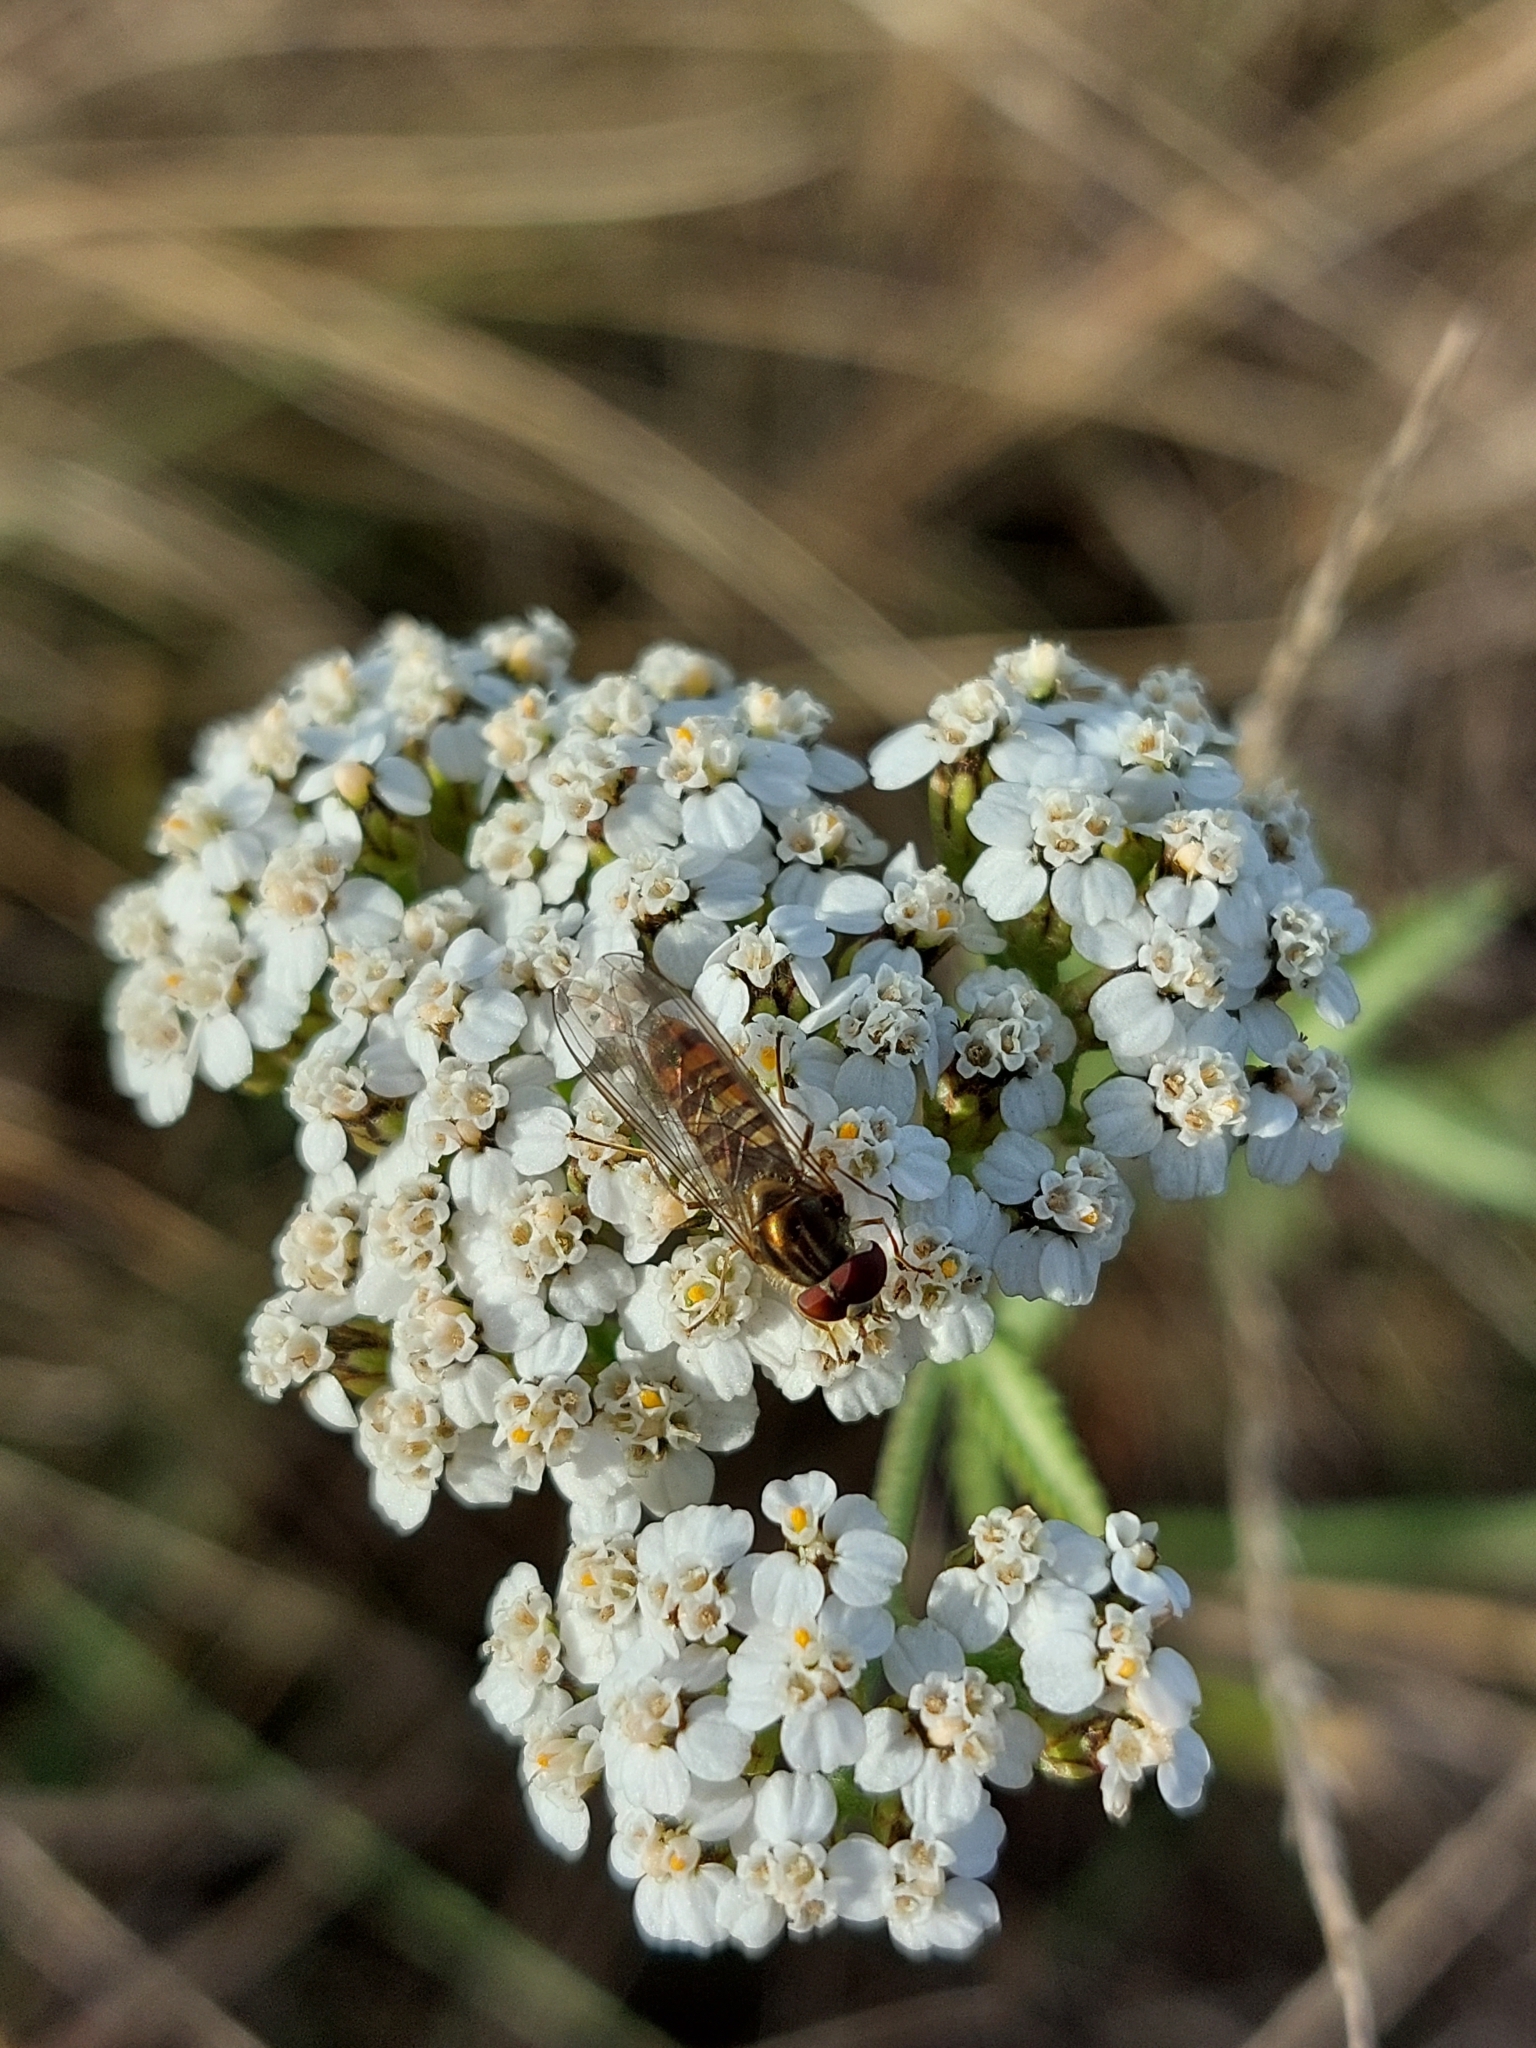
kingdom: Animalia
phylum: Arthropoda
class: Insecta
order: Diptera
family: Syrphidae
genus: Episyrphus
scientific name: Episyrphus balteatus
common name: Marmalade hoverfly
